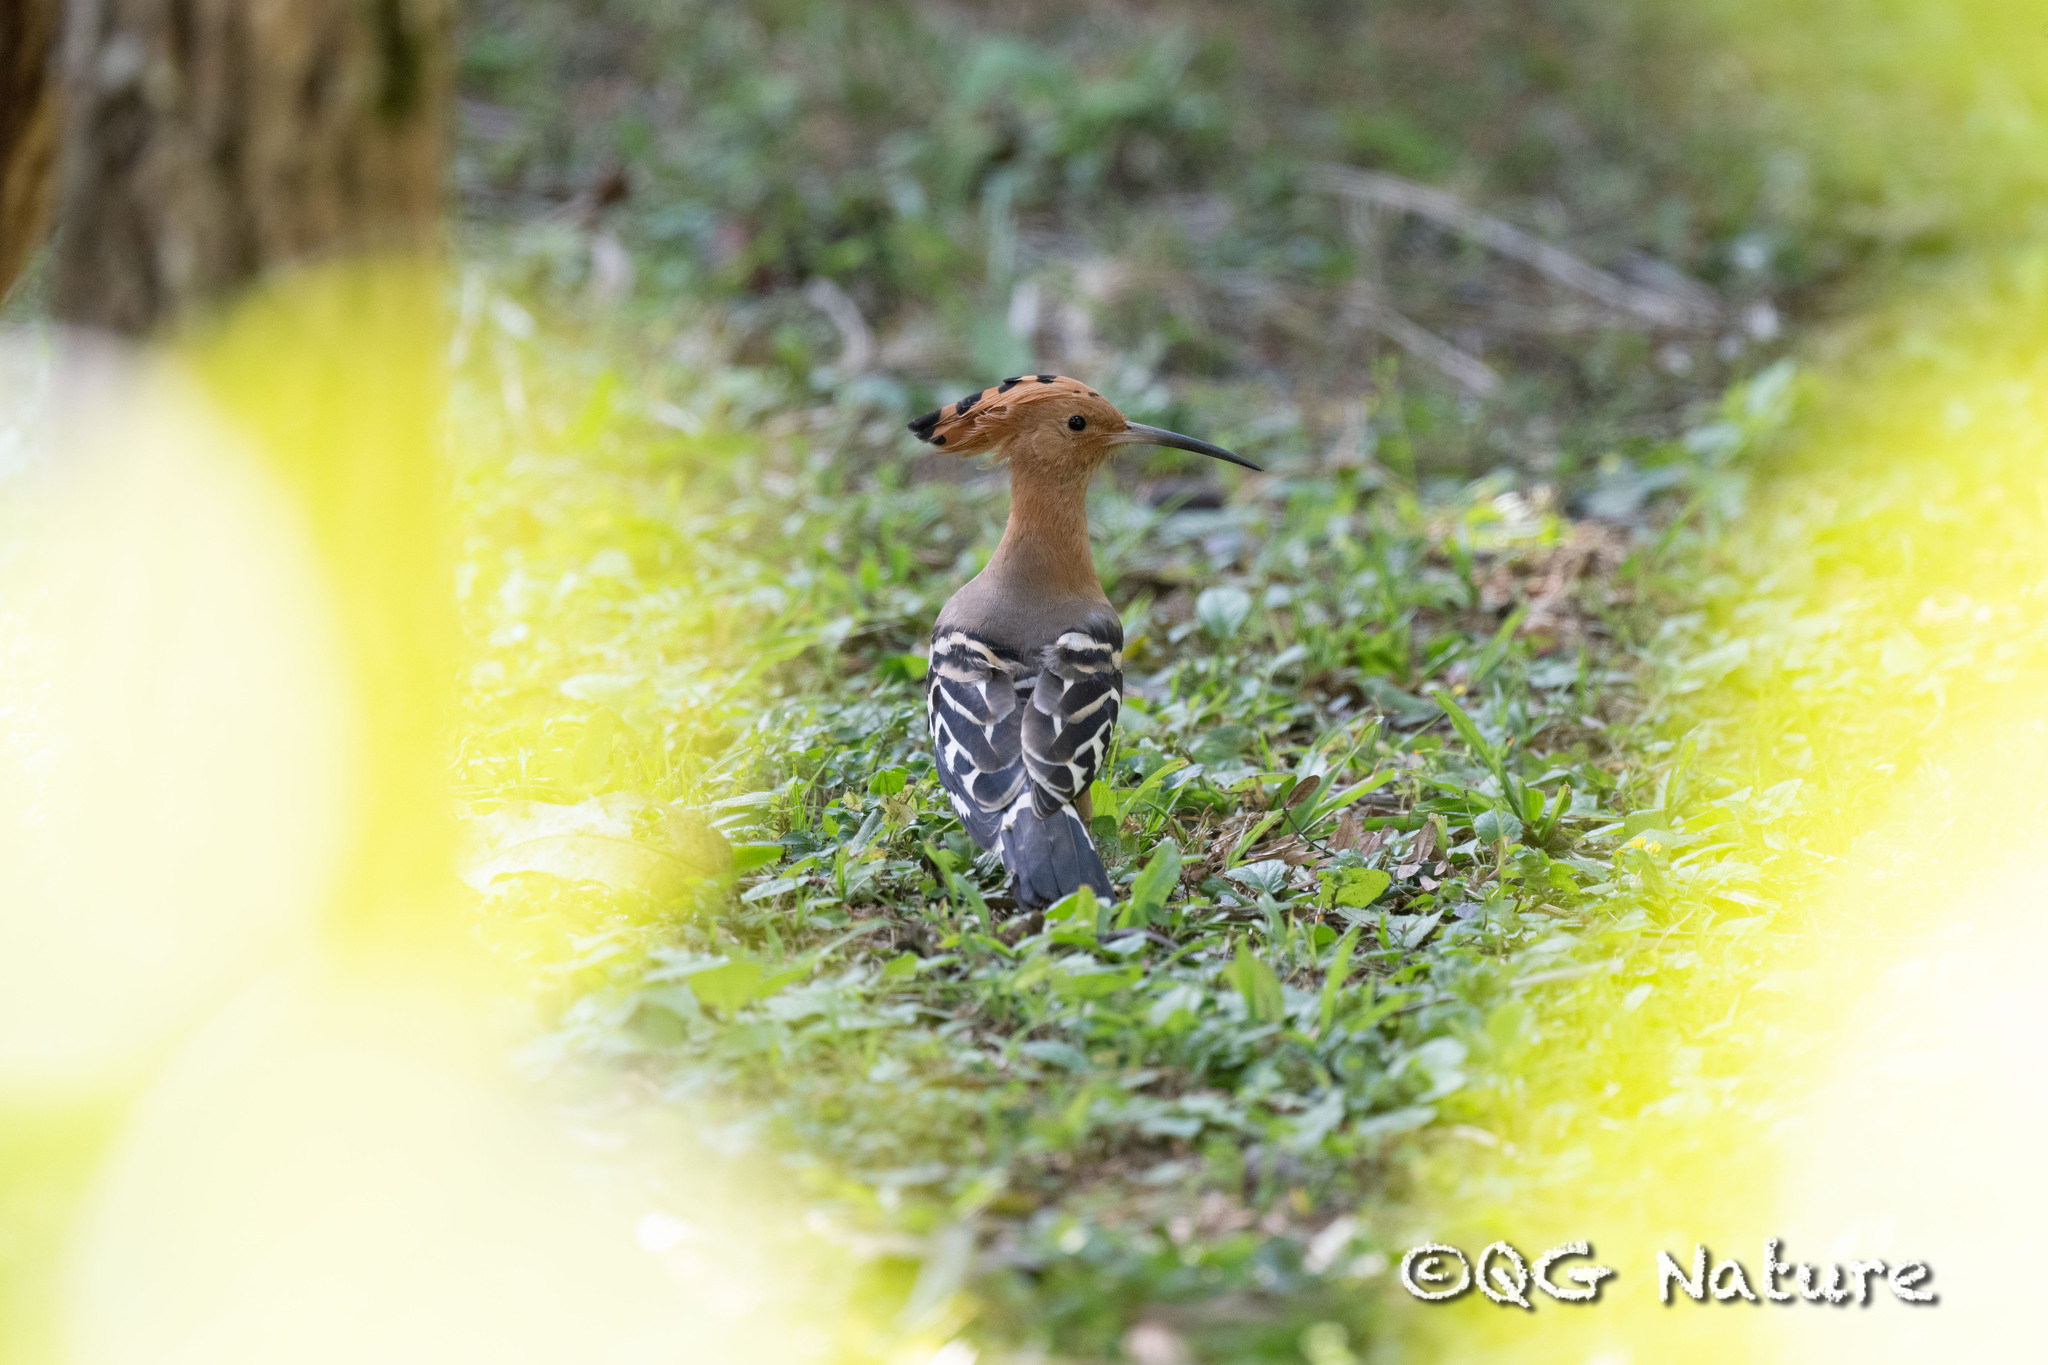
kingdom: Animalia
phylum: Chordata
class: Aves
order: Bucerotiformes
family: Upupidae
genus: Upupa
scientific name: Upupa epops
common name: Eurasian hoopoe
